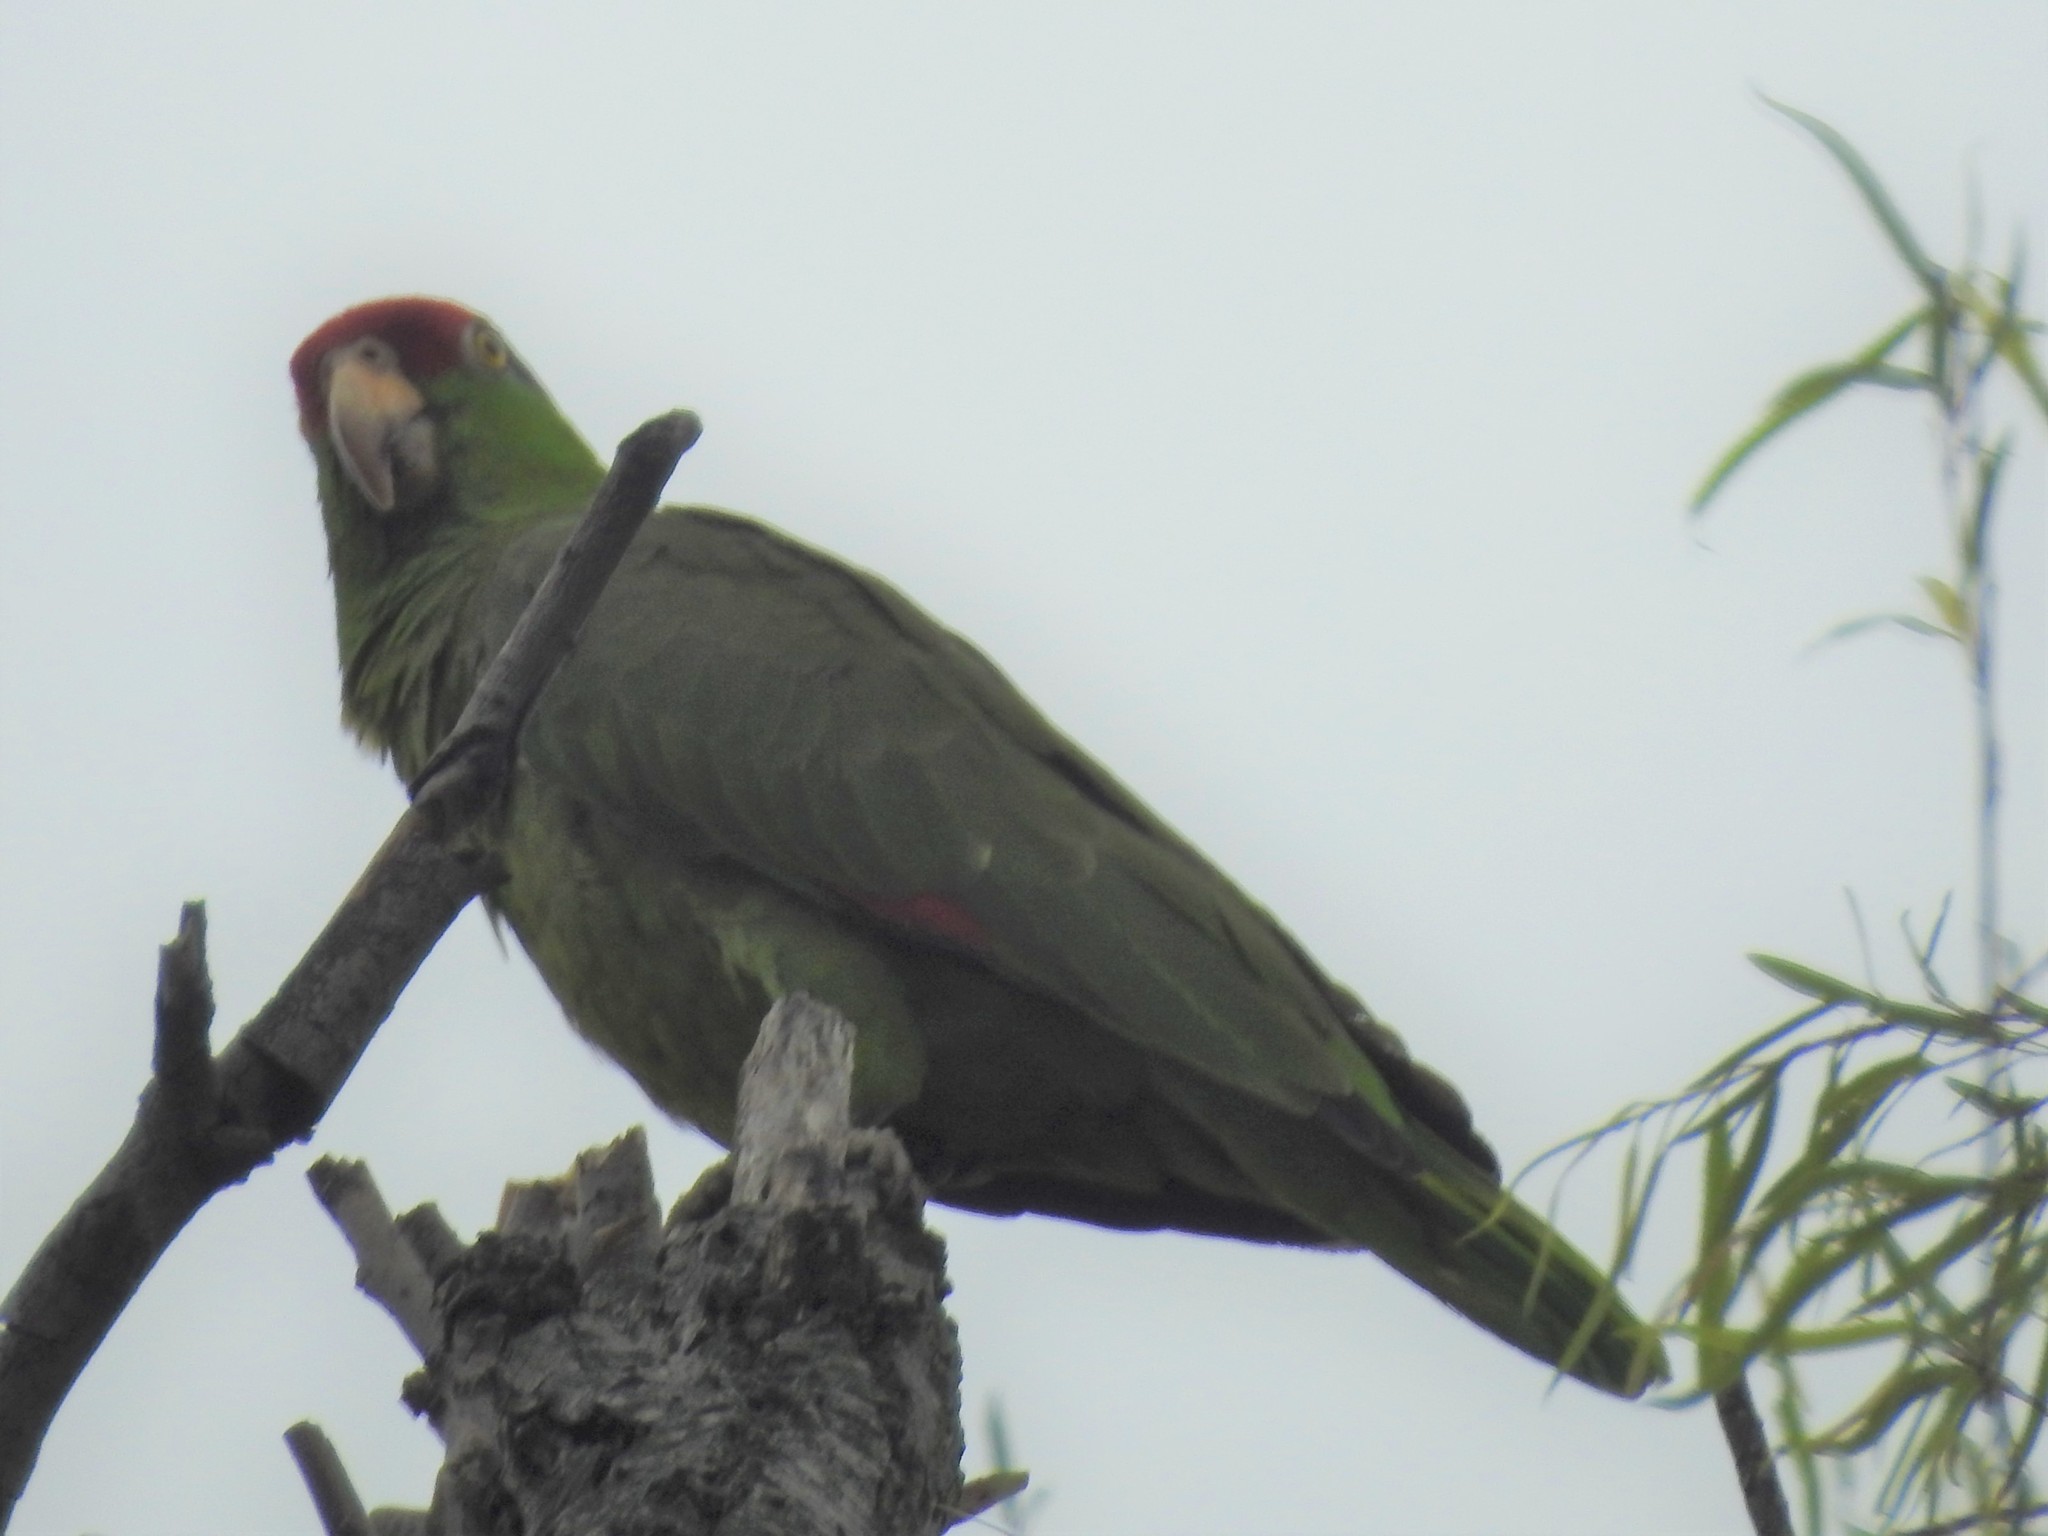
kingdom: Animalia
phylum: Chordata
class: Aves
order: Psittaciformes
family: Psittacidae
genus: Amazona
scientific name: Amazona viridigenalis
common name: Red-crowned amazon
